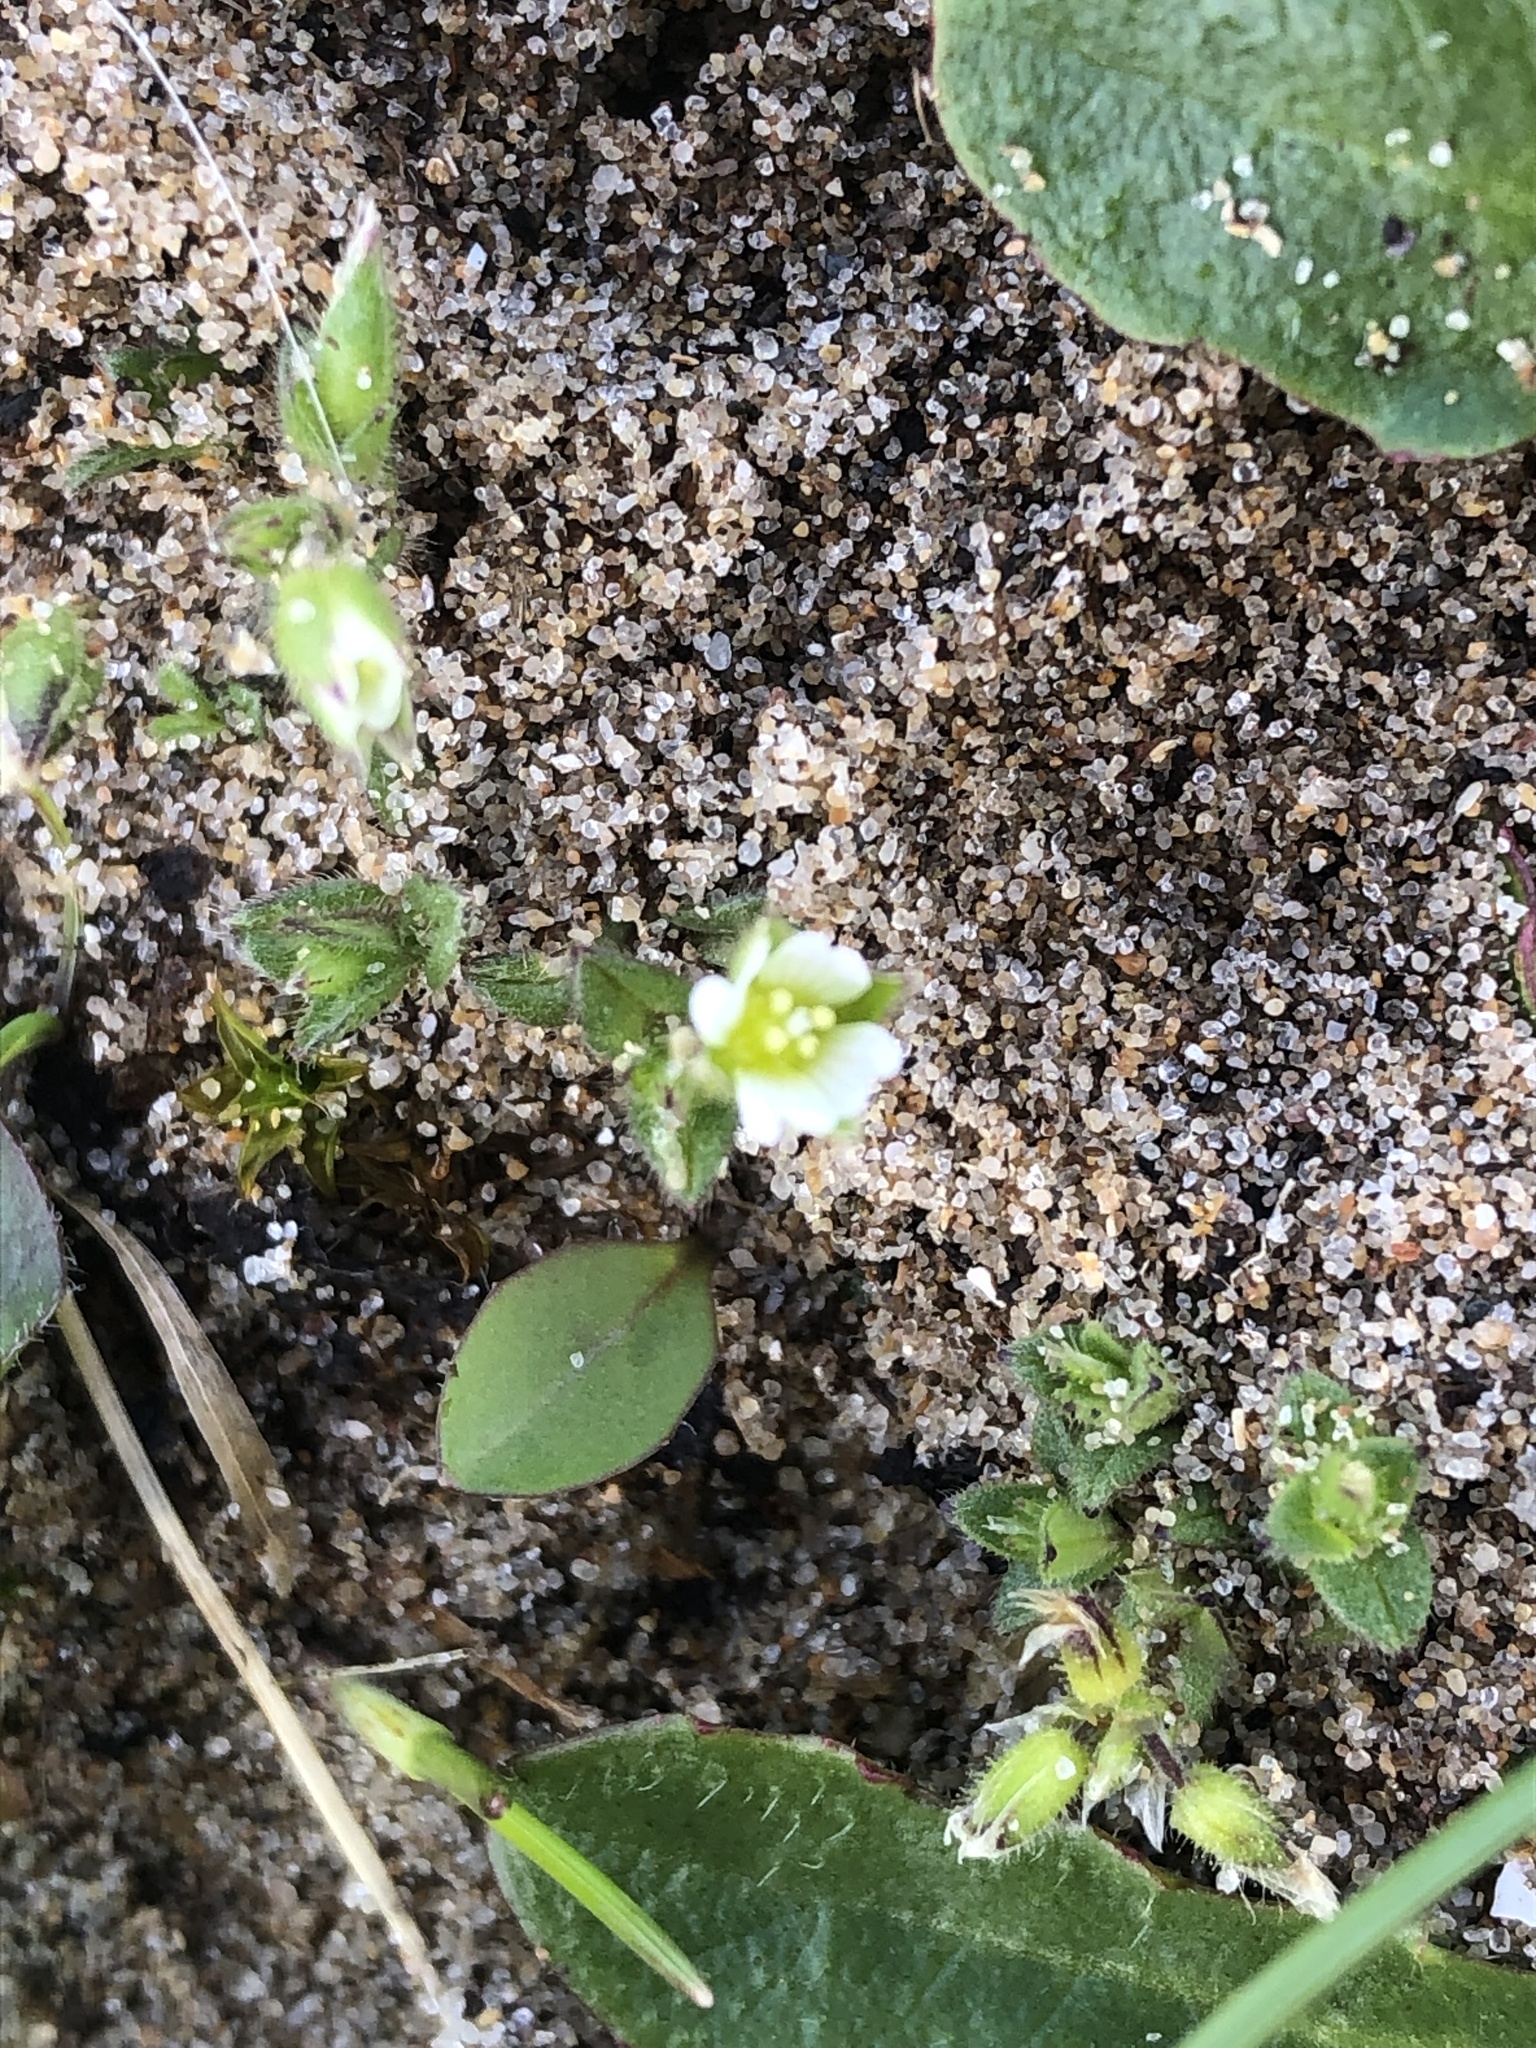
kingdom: Plantae
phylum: Tracheophyta
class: Magnoliopsida
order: Caryophyllales
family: Caryophyllaceae
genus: Cerastium
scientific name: Cerastium diffusum
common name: Fourstamen chickweed
